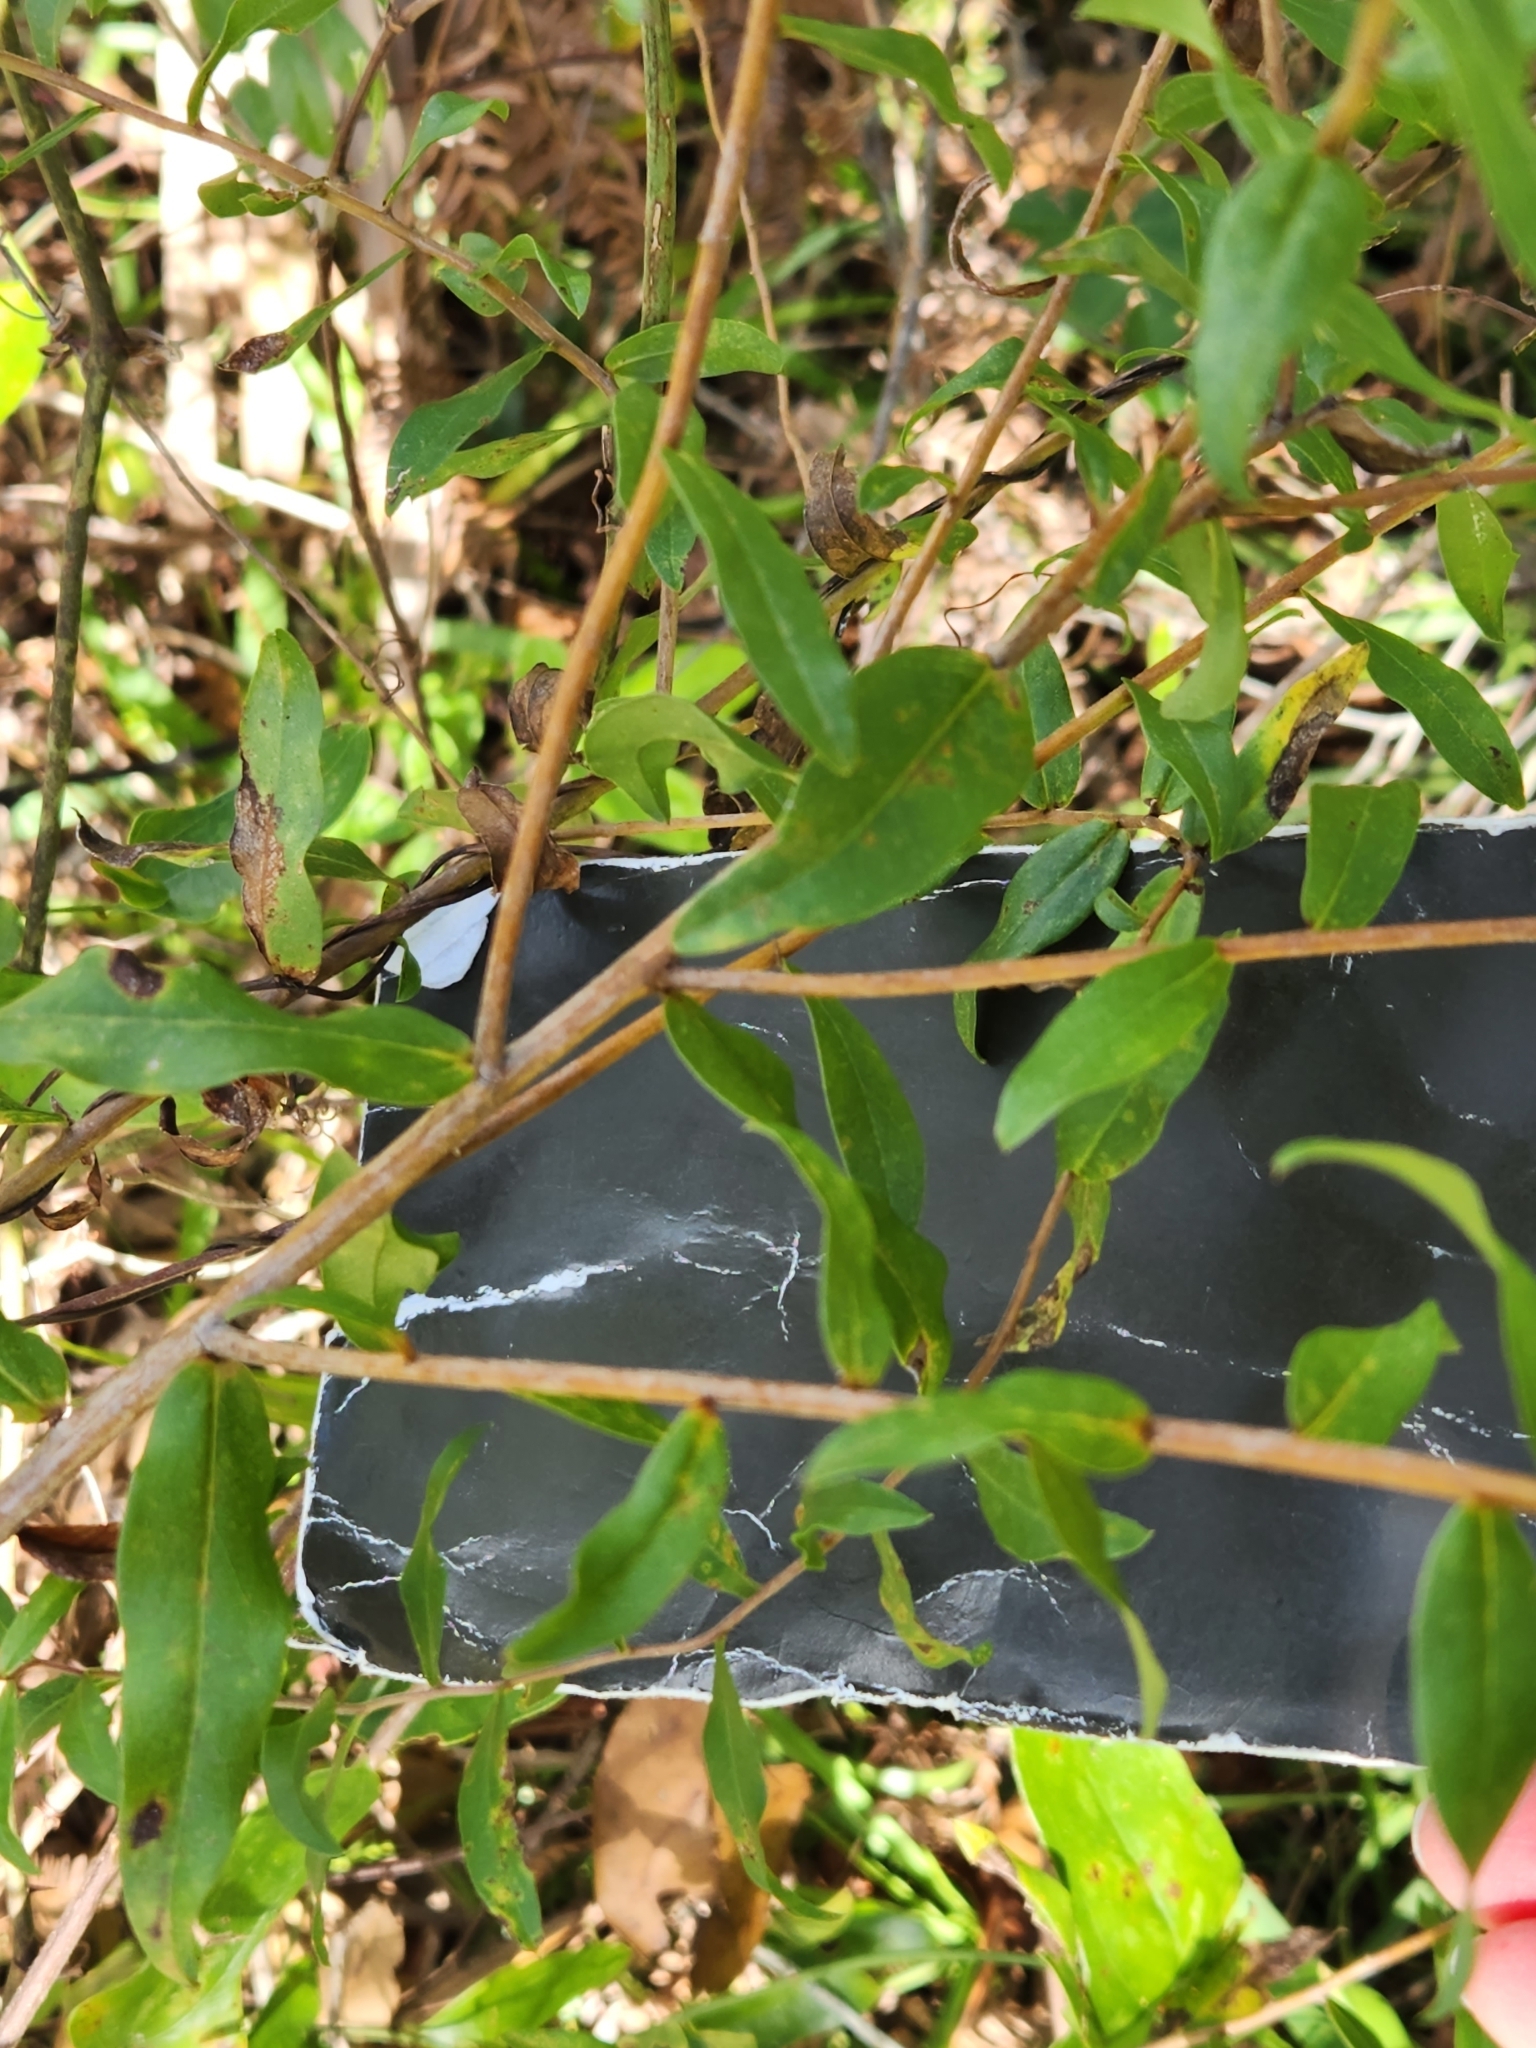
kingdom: Plantae
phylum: Tracheophyta
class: Magnoliopsida
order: Asterales
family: Asteraceae
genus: Solidago
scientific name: Solidago chapmanii
